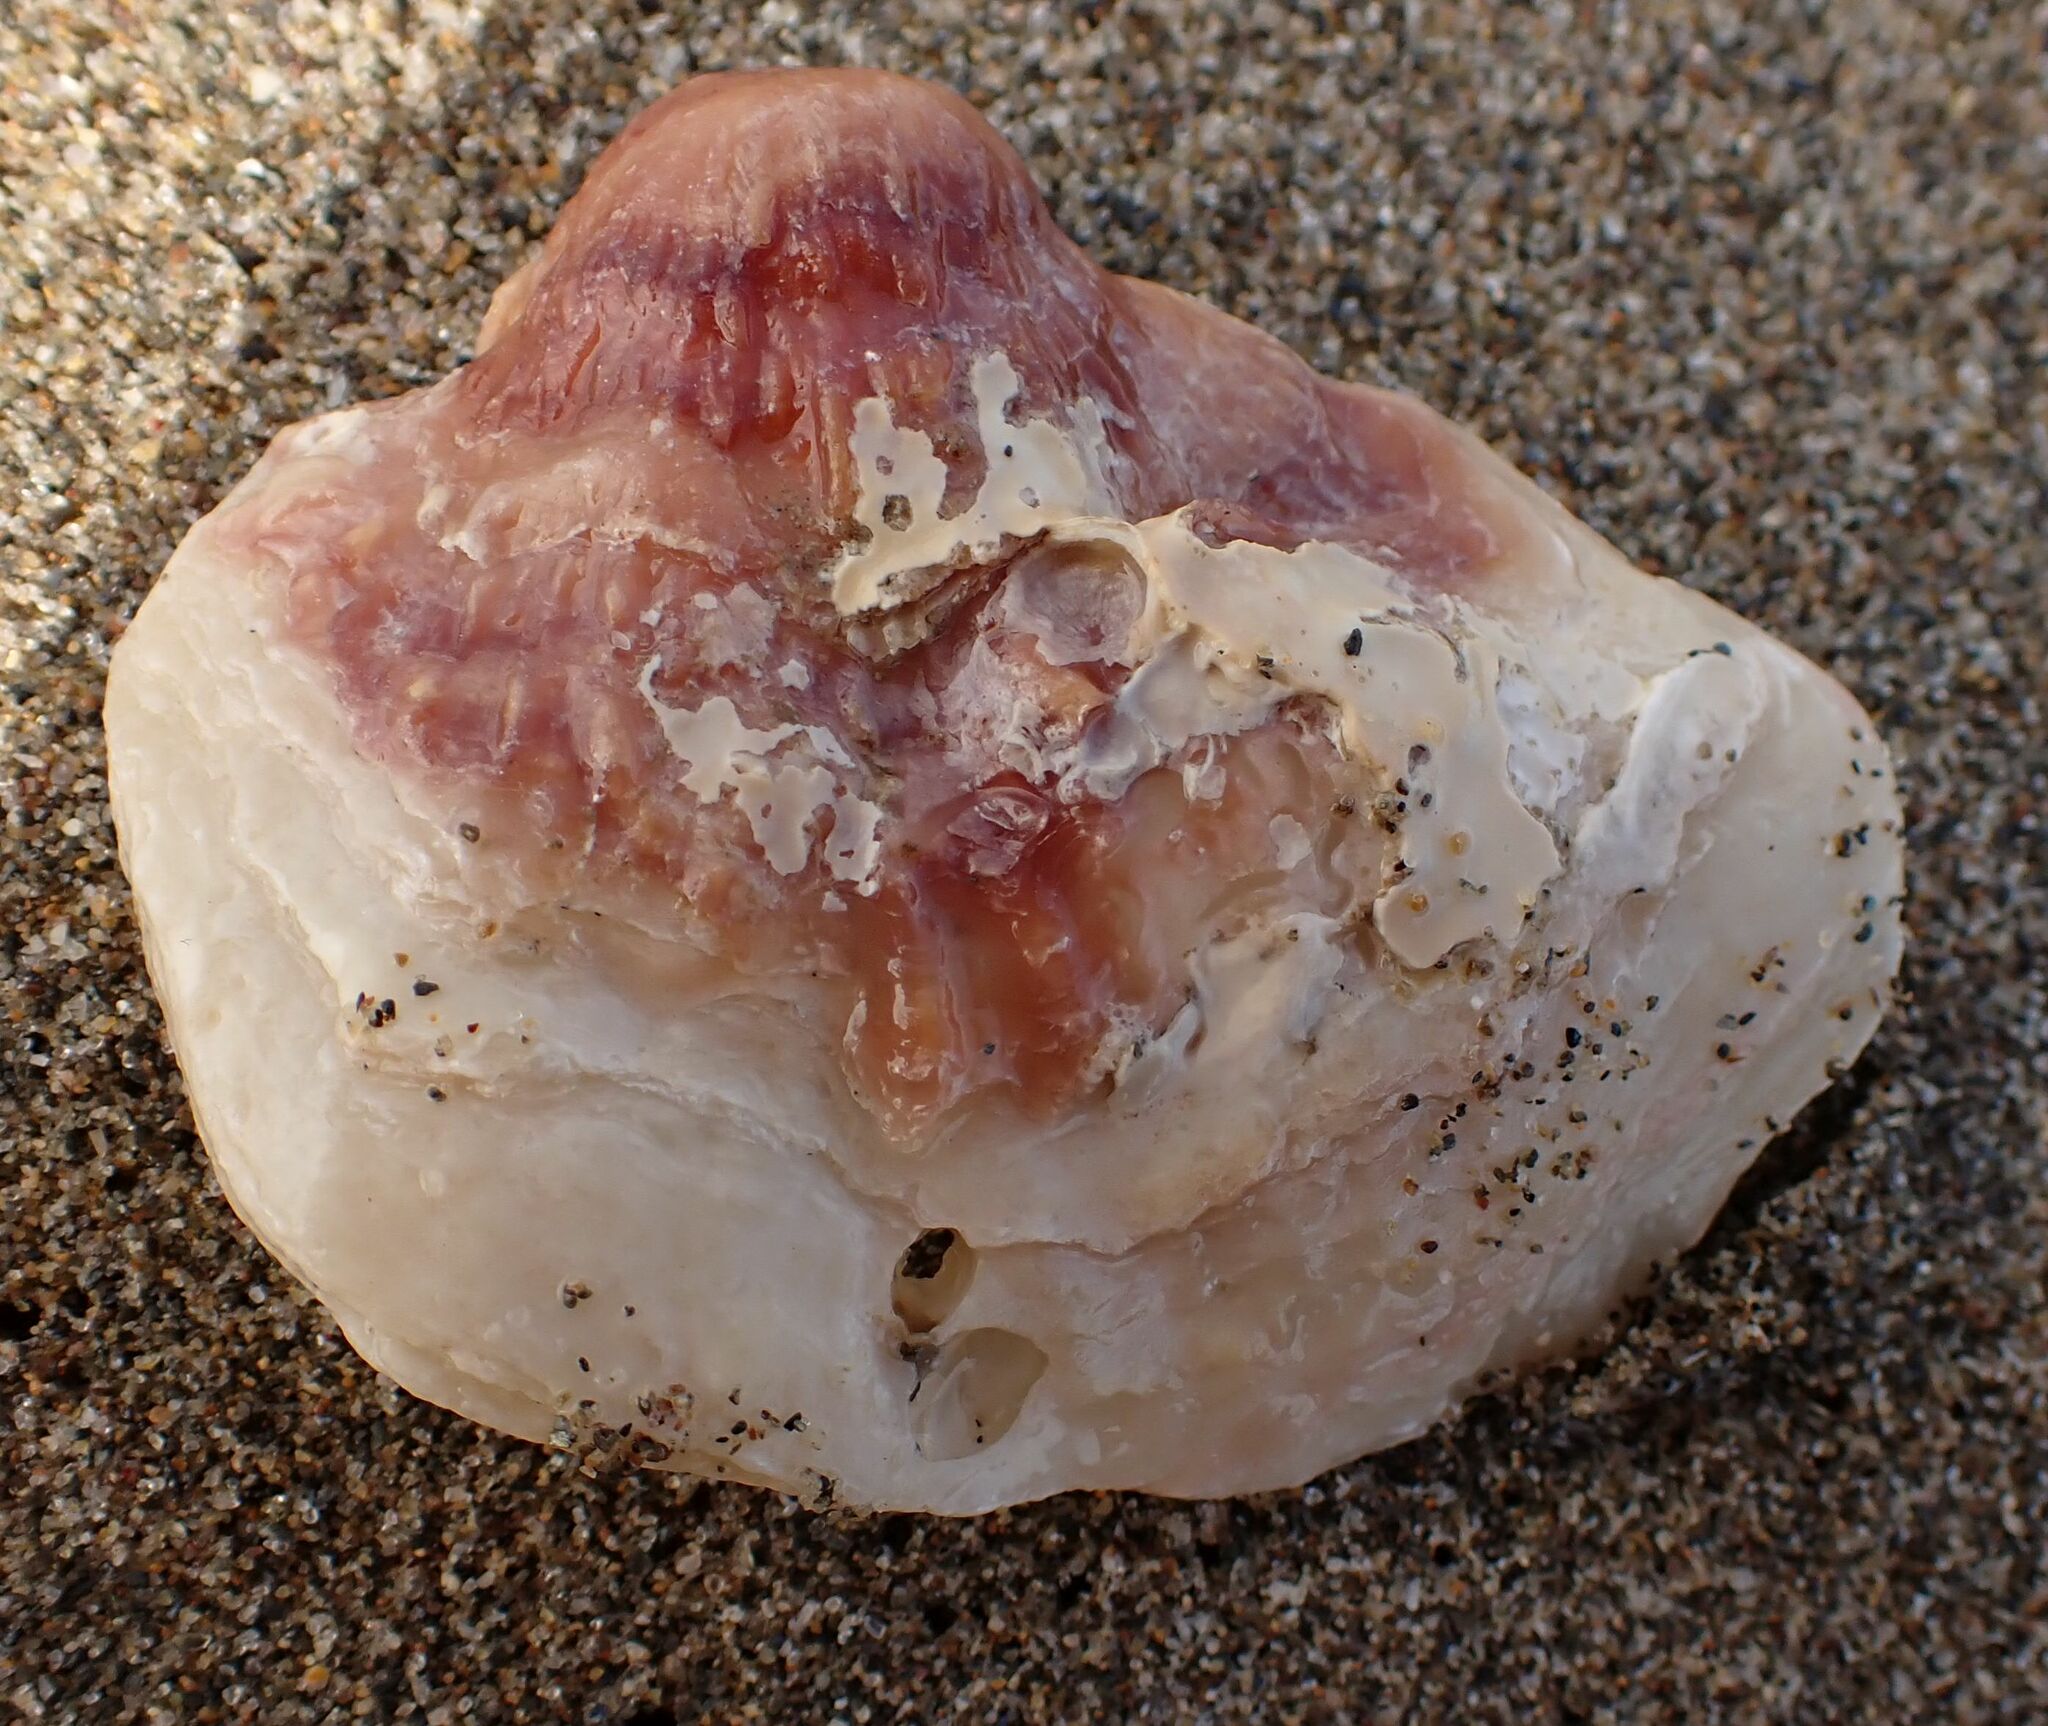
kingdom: Animalia
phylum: Mollusca
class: Bivalvia
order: Pectinida
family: Anomiidae
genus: Anomia
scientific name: Anomia ephippium
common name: Saddle oyster
